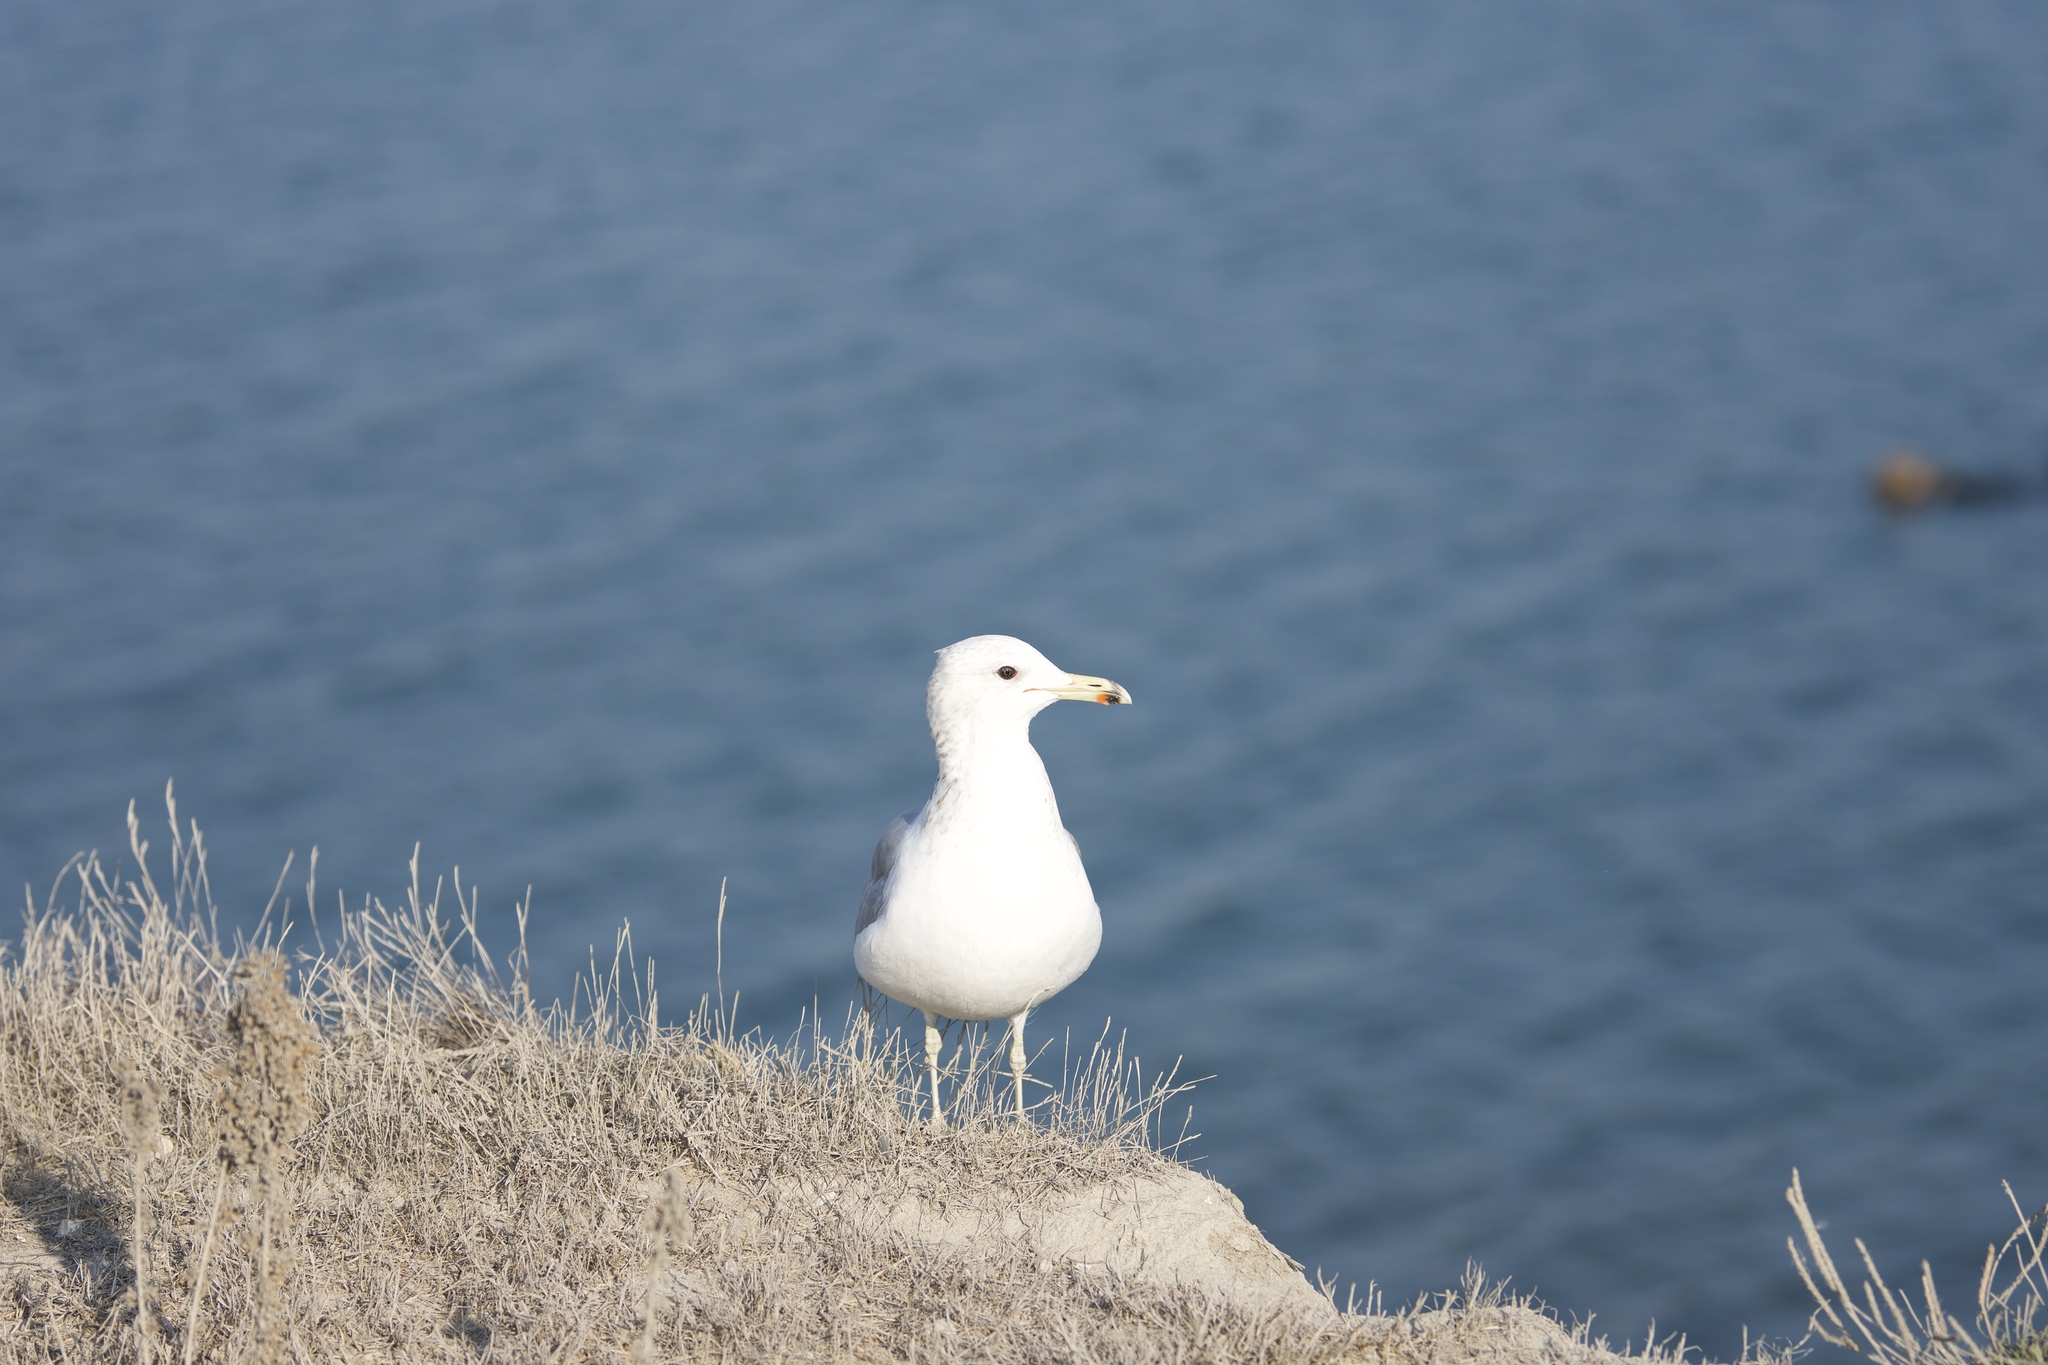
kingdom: Animalia
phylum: Chordata
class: Aves
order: Charadriiformes
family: Laridae
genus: Larus
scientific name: Larus californicus
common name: California gull
